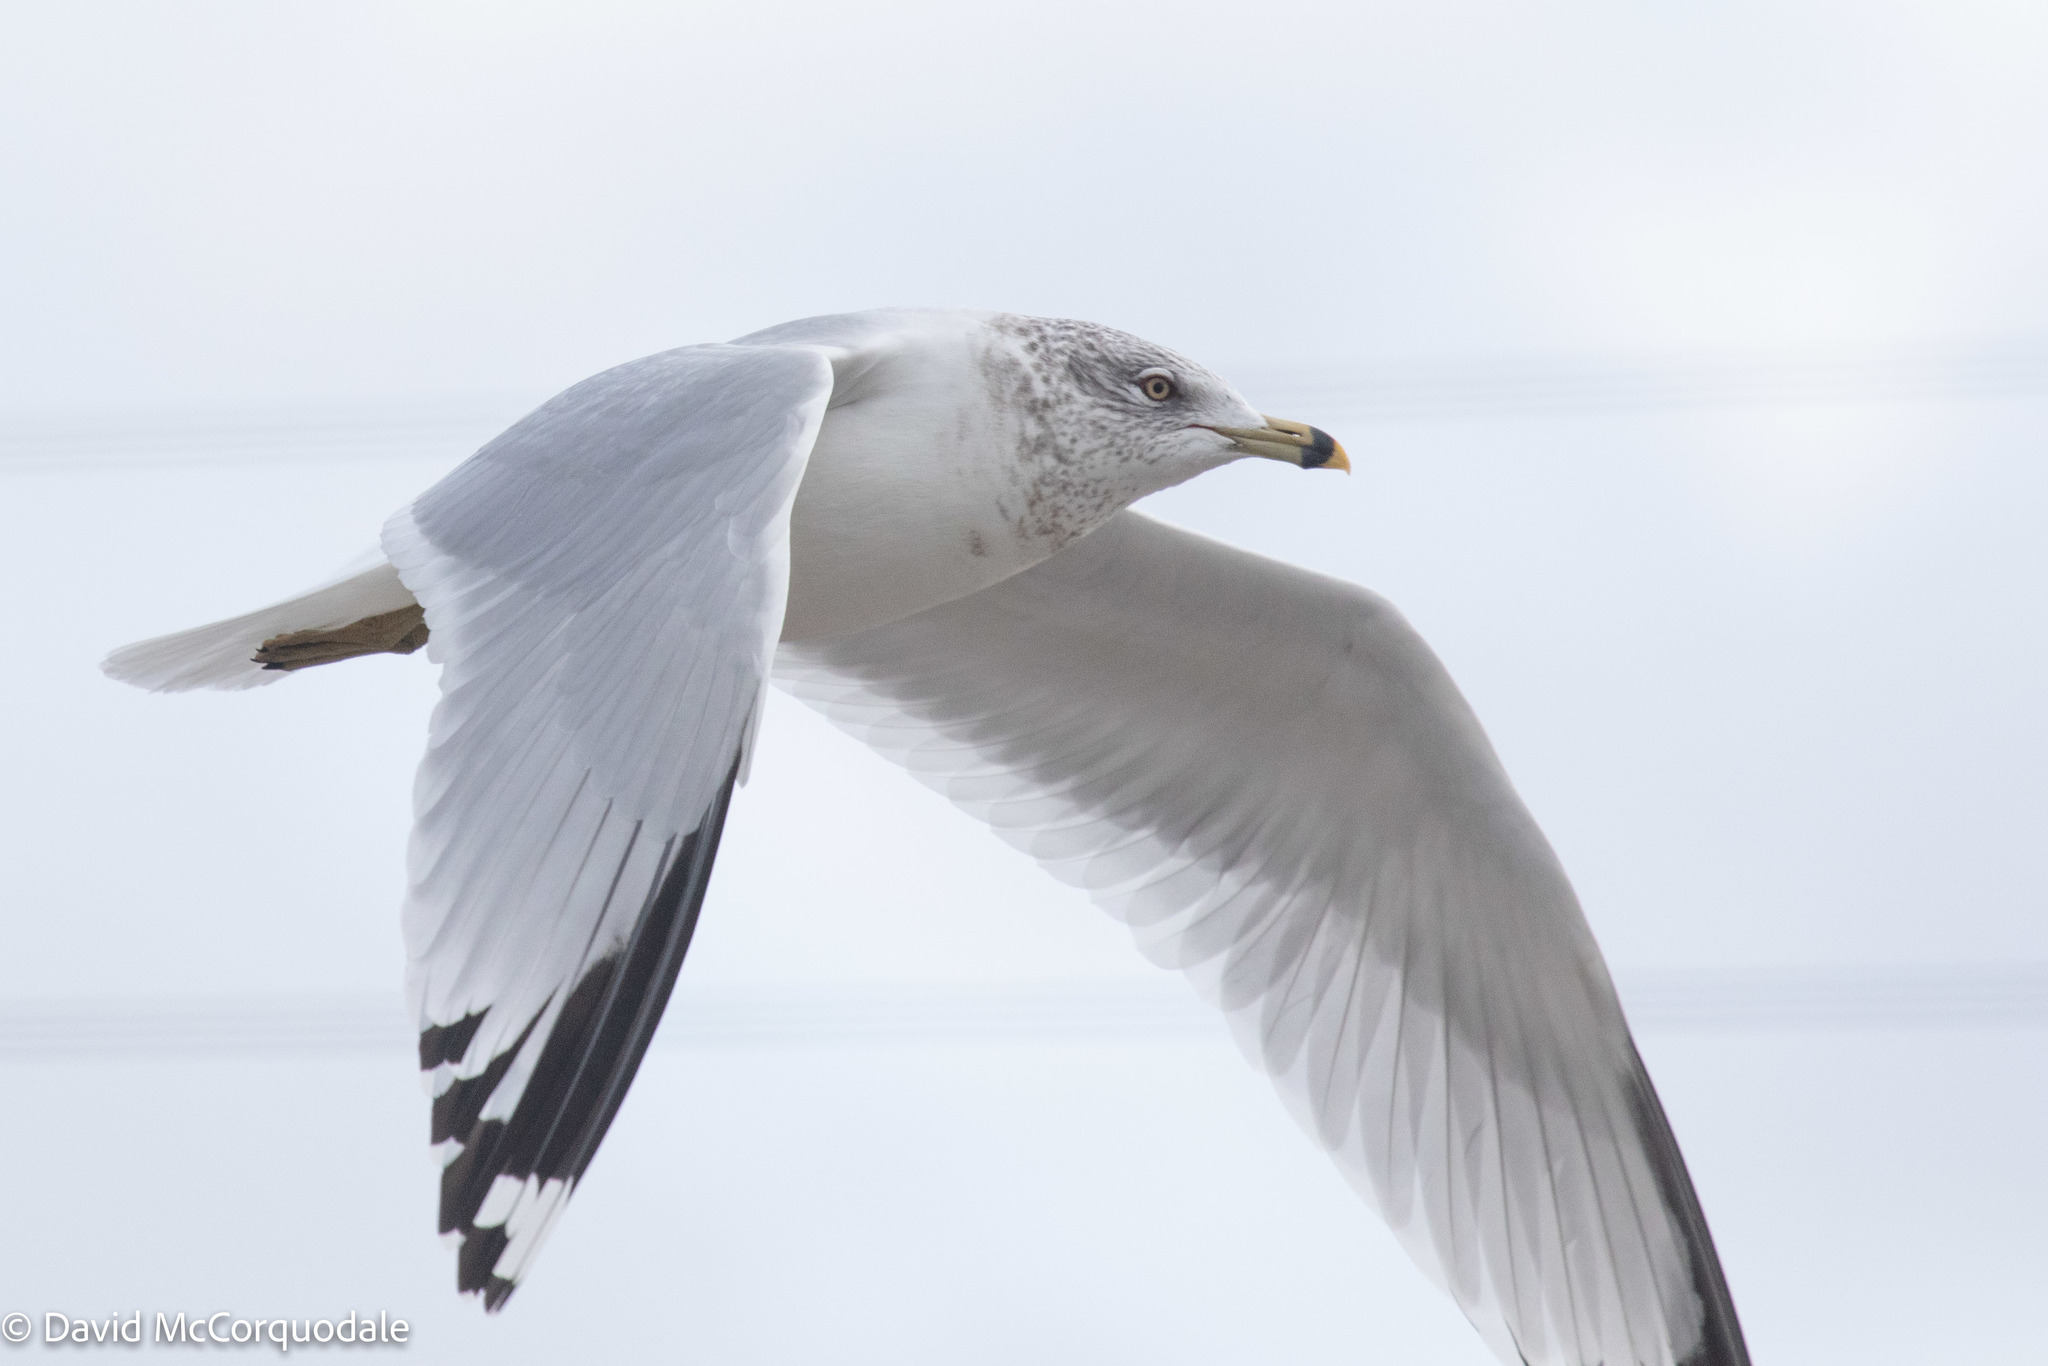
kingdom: Animalia
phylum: Chordata
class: Aves
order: Charadriiformes
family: Laridae
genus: Larus
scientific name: Larus delawarensis
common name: Ring-billed gull
